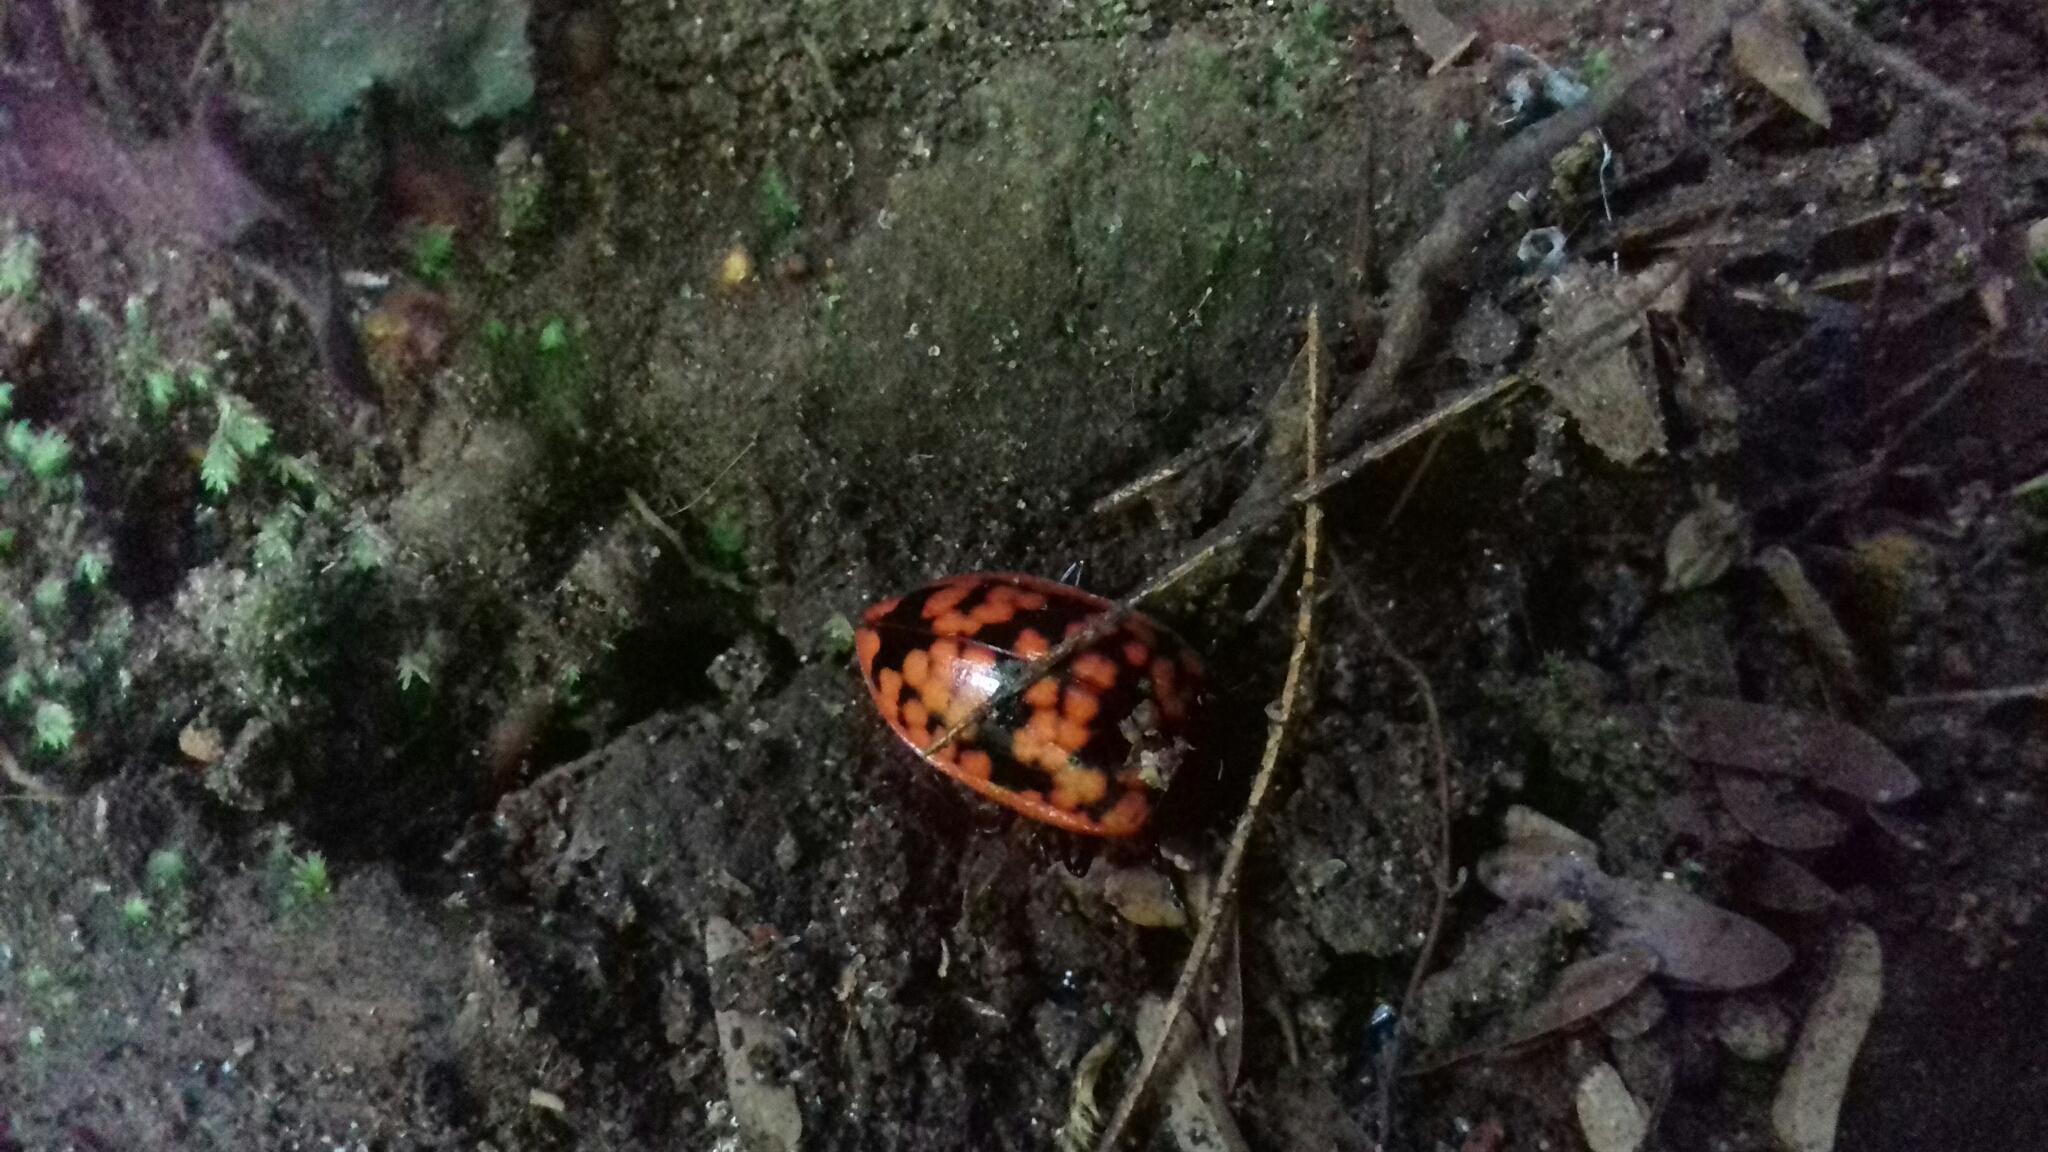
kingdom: Animalia
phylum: Arthropoda
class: Insecta
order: Coleoptera
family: Erotylidae
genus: Erotylina
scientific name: Erotylina
